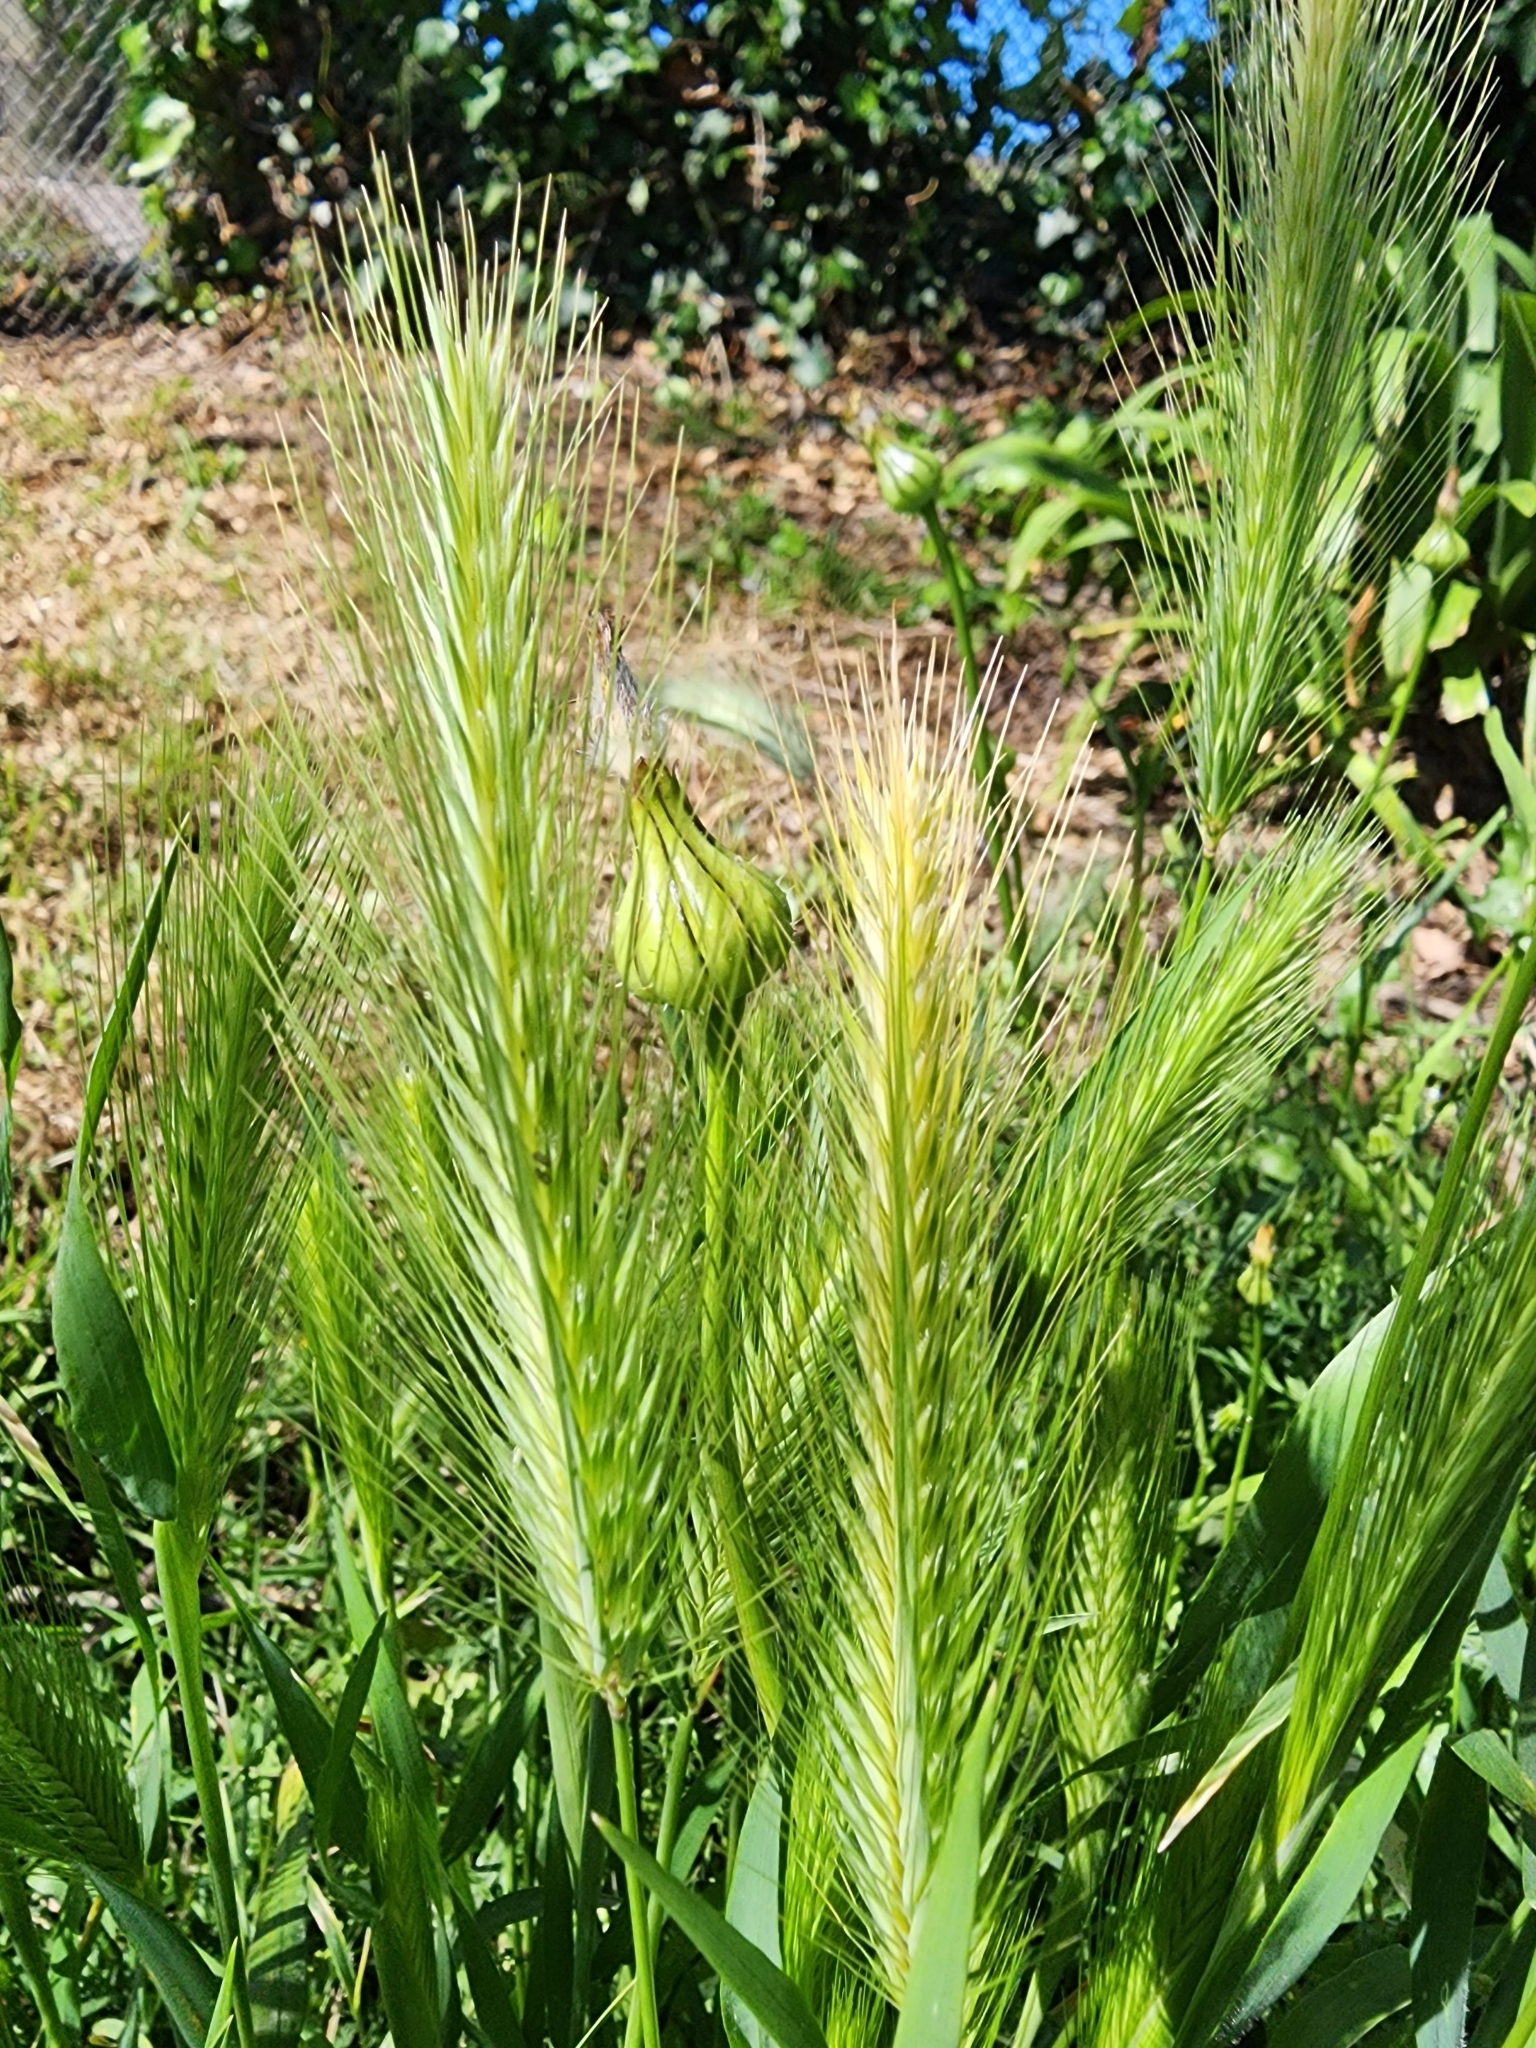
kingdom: Plantae
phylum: Tracheophyta
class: Liliopsida
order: Poales
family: Poaceae
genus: Hordeum
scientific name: Hordeum murinum
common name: Wall barley
